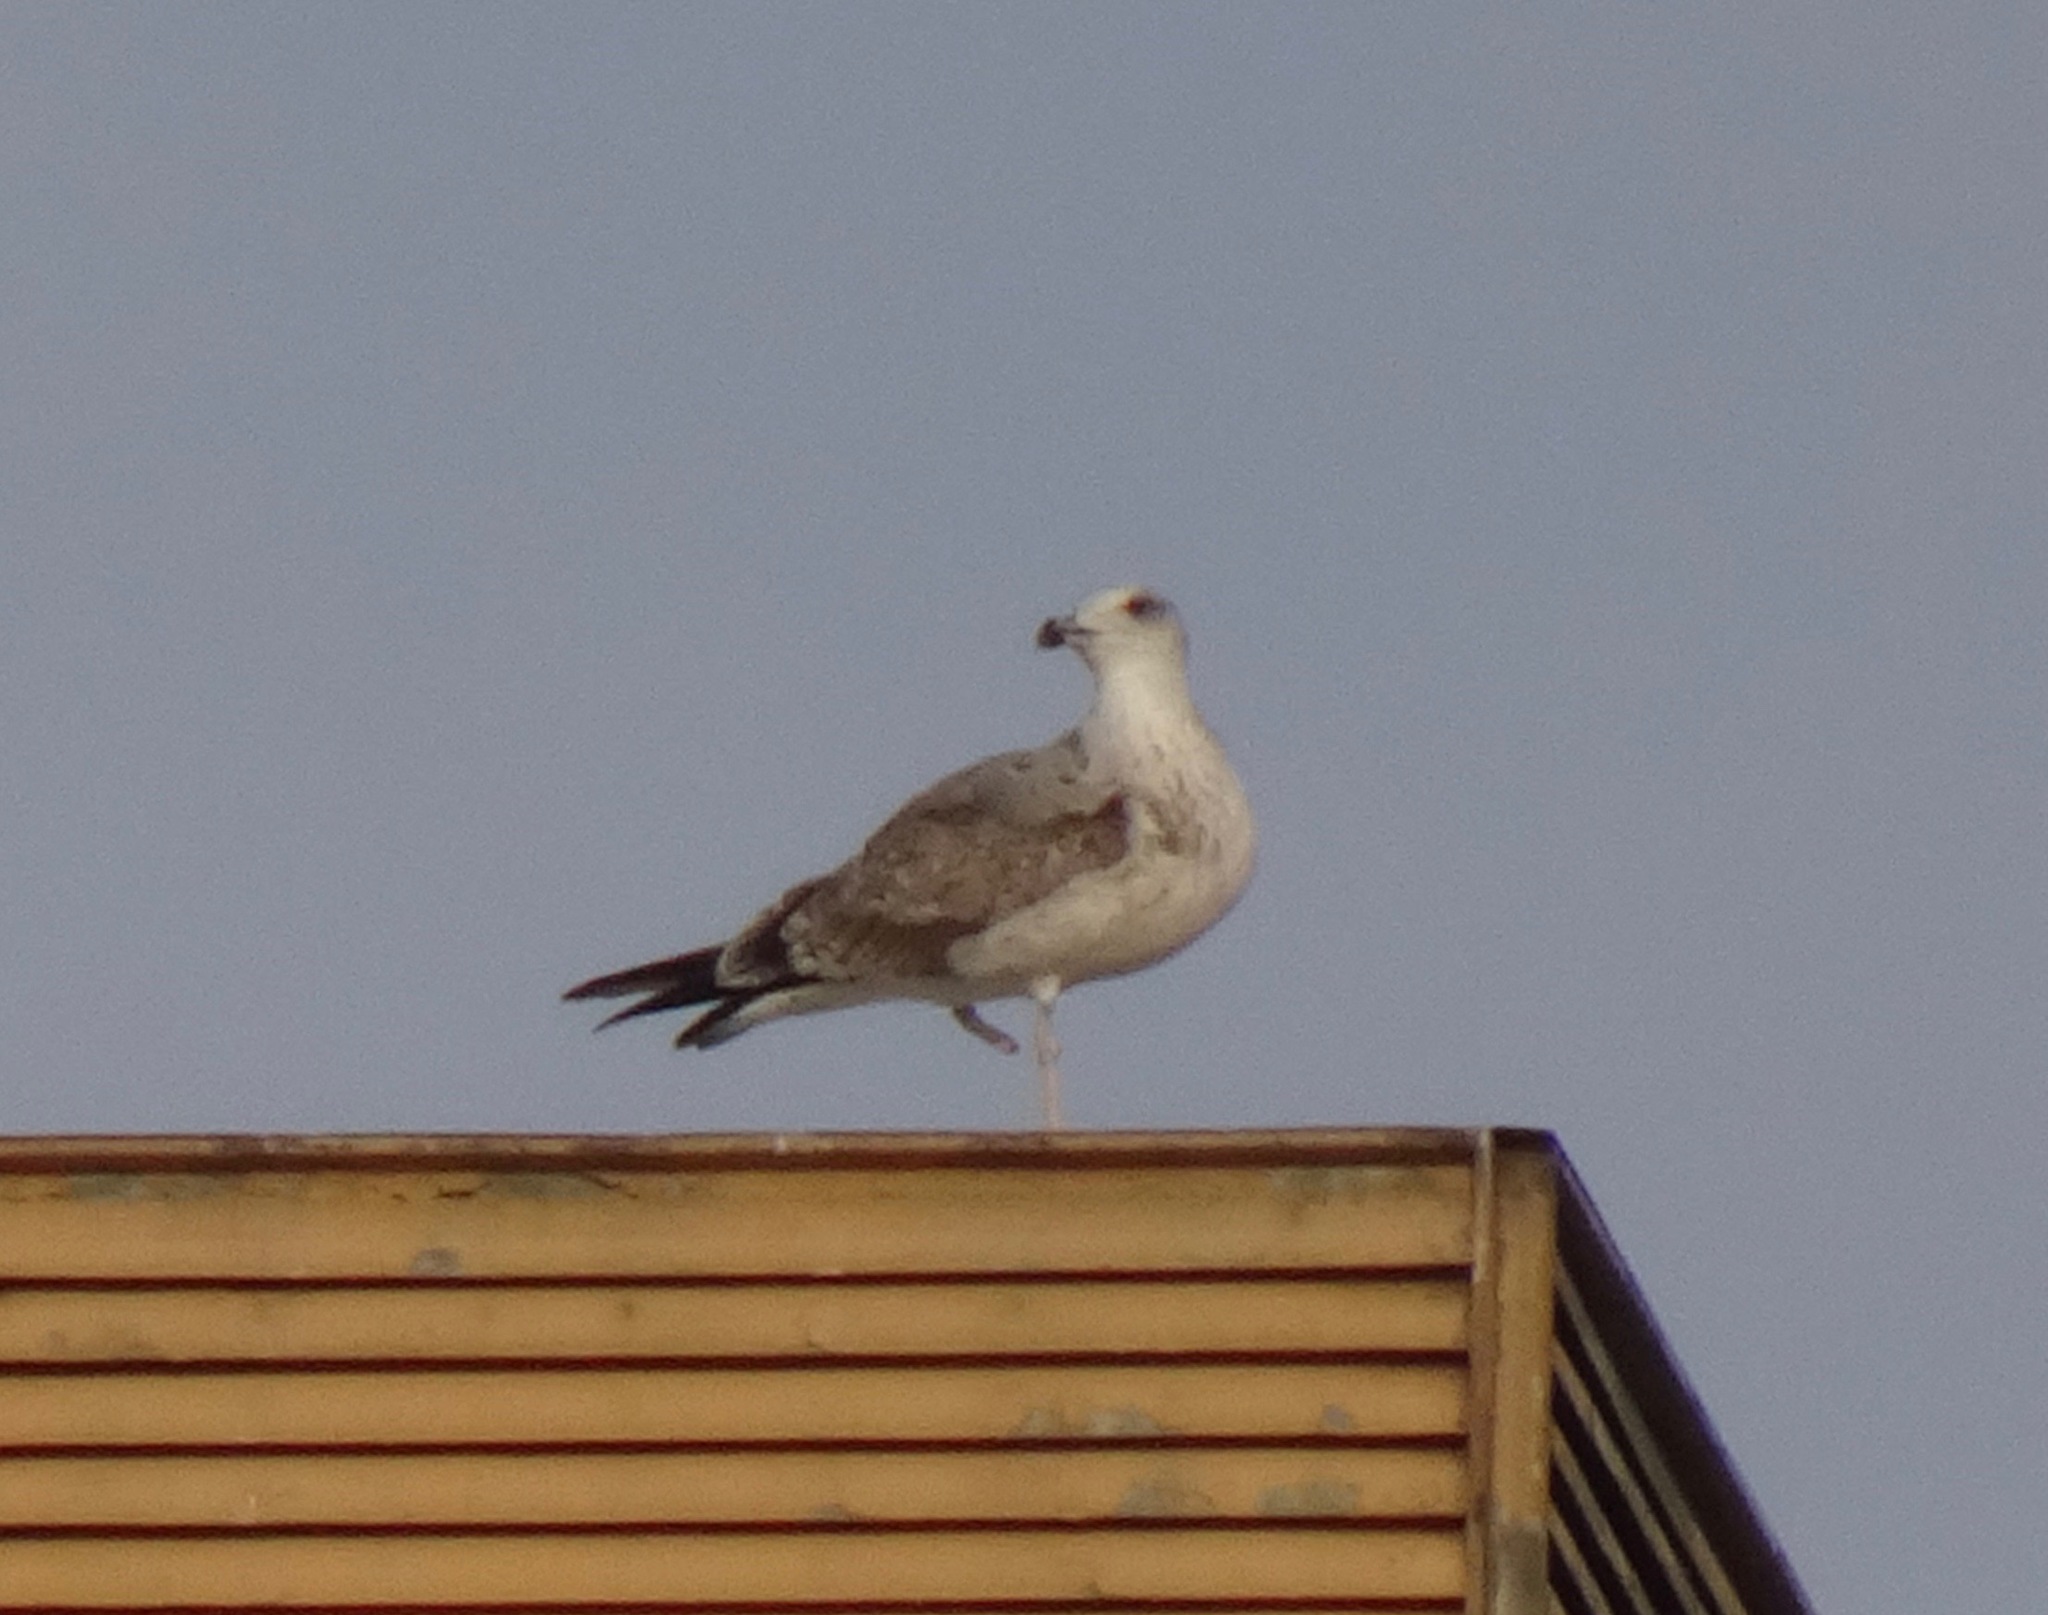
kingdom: Animalia
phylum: Chordata
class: Aves
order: Charadriiformes
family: Laridae
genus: Larus
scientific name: Larus michahellis
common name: Yellow-legged gull
